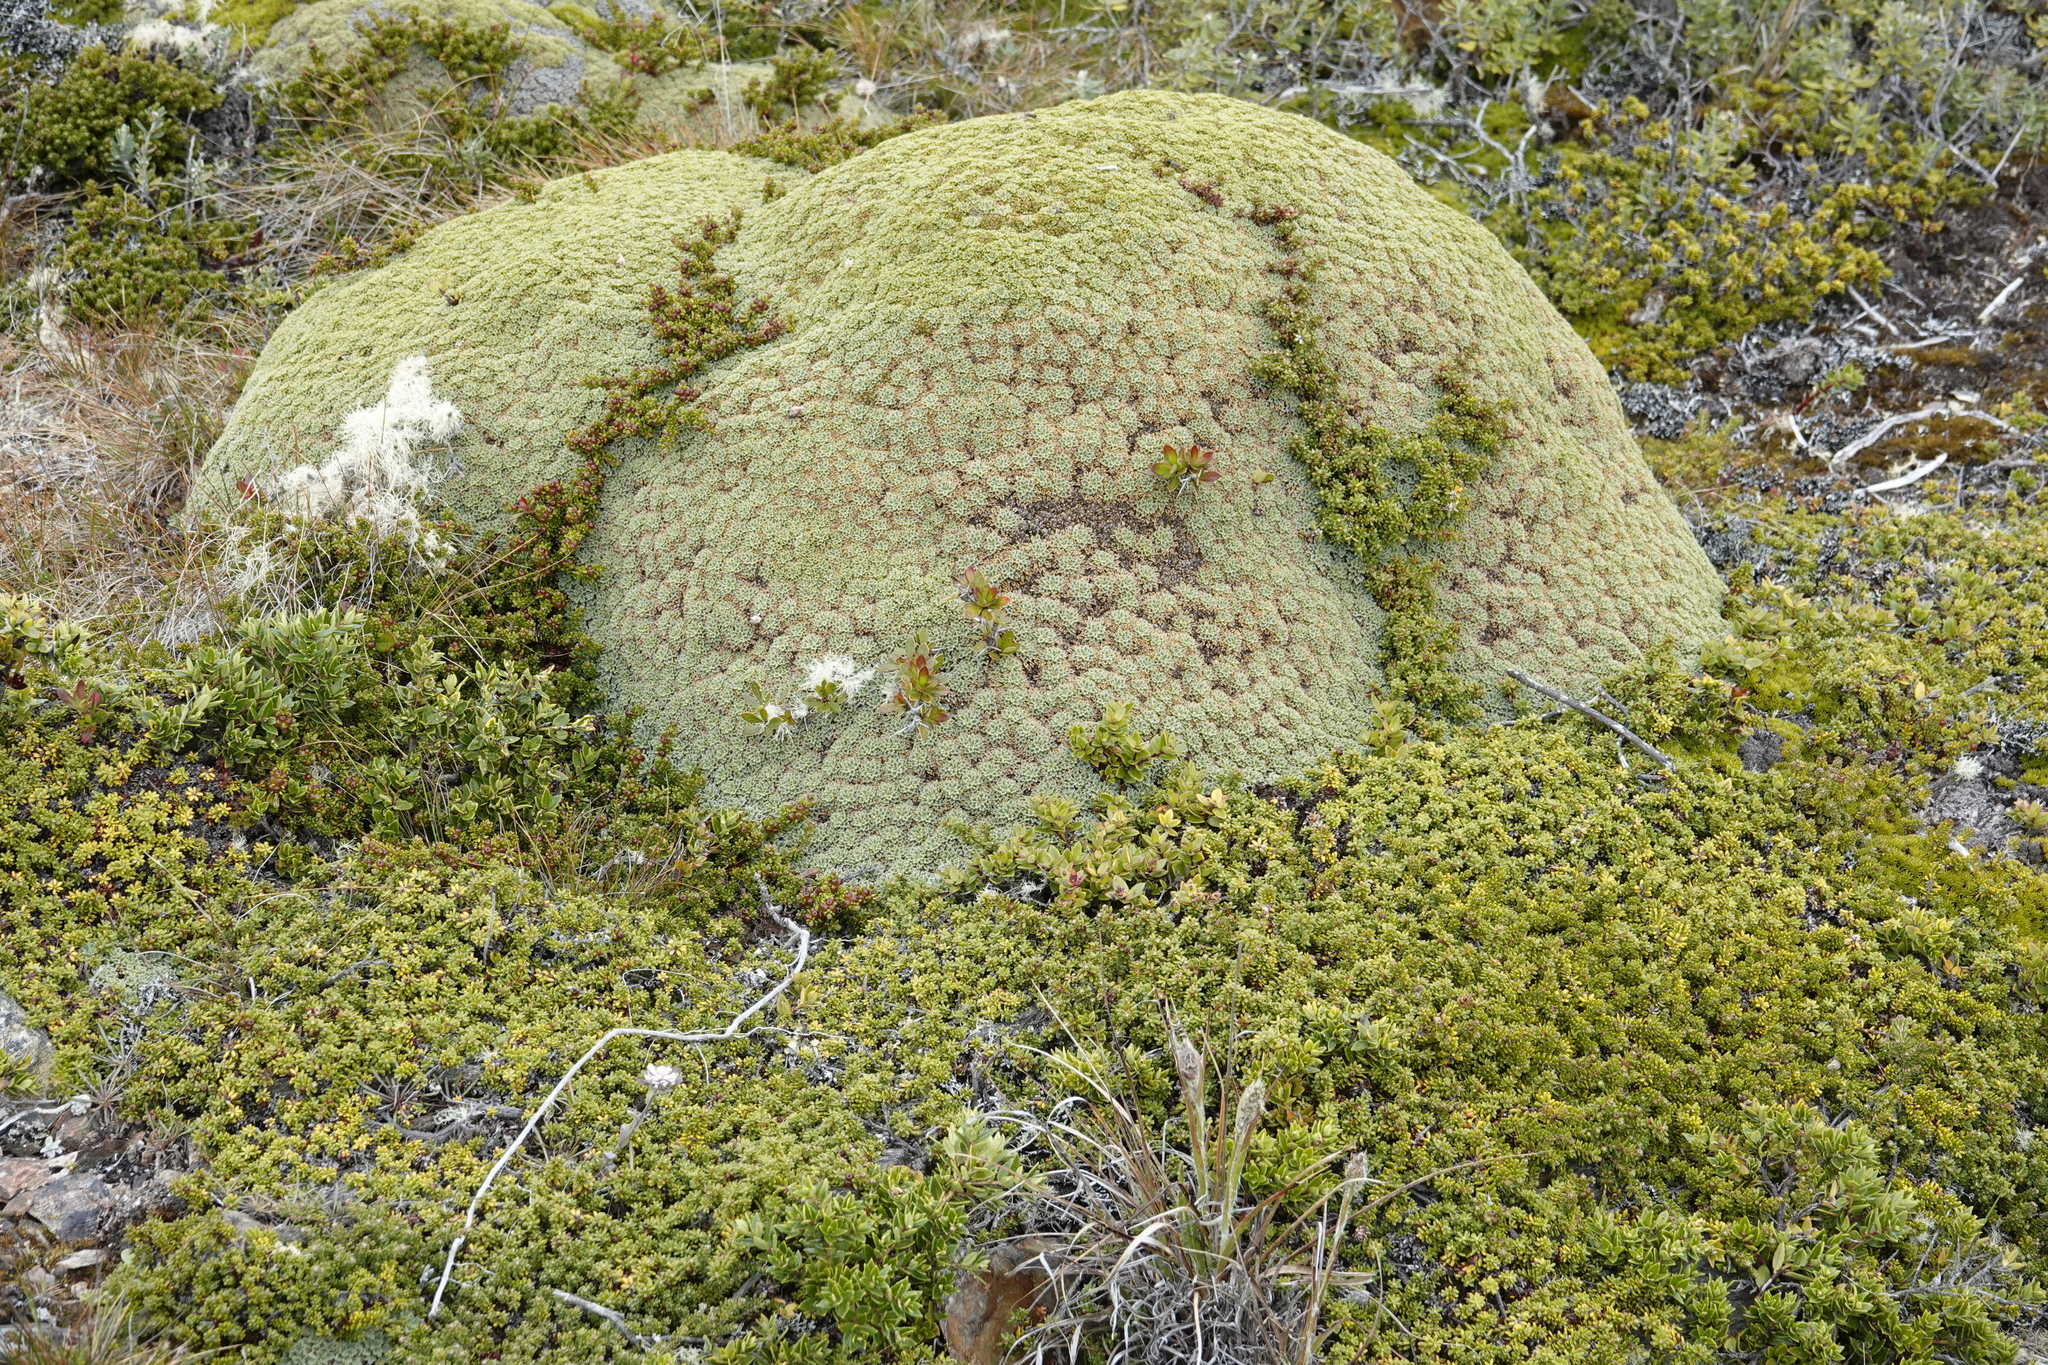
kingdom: Plantae
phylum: Tracheophyta
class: Magnoliopsida
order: Apiales
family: Apiaceae
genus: Bolax
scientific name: Bolax gummifera
